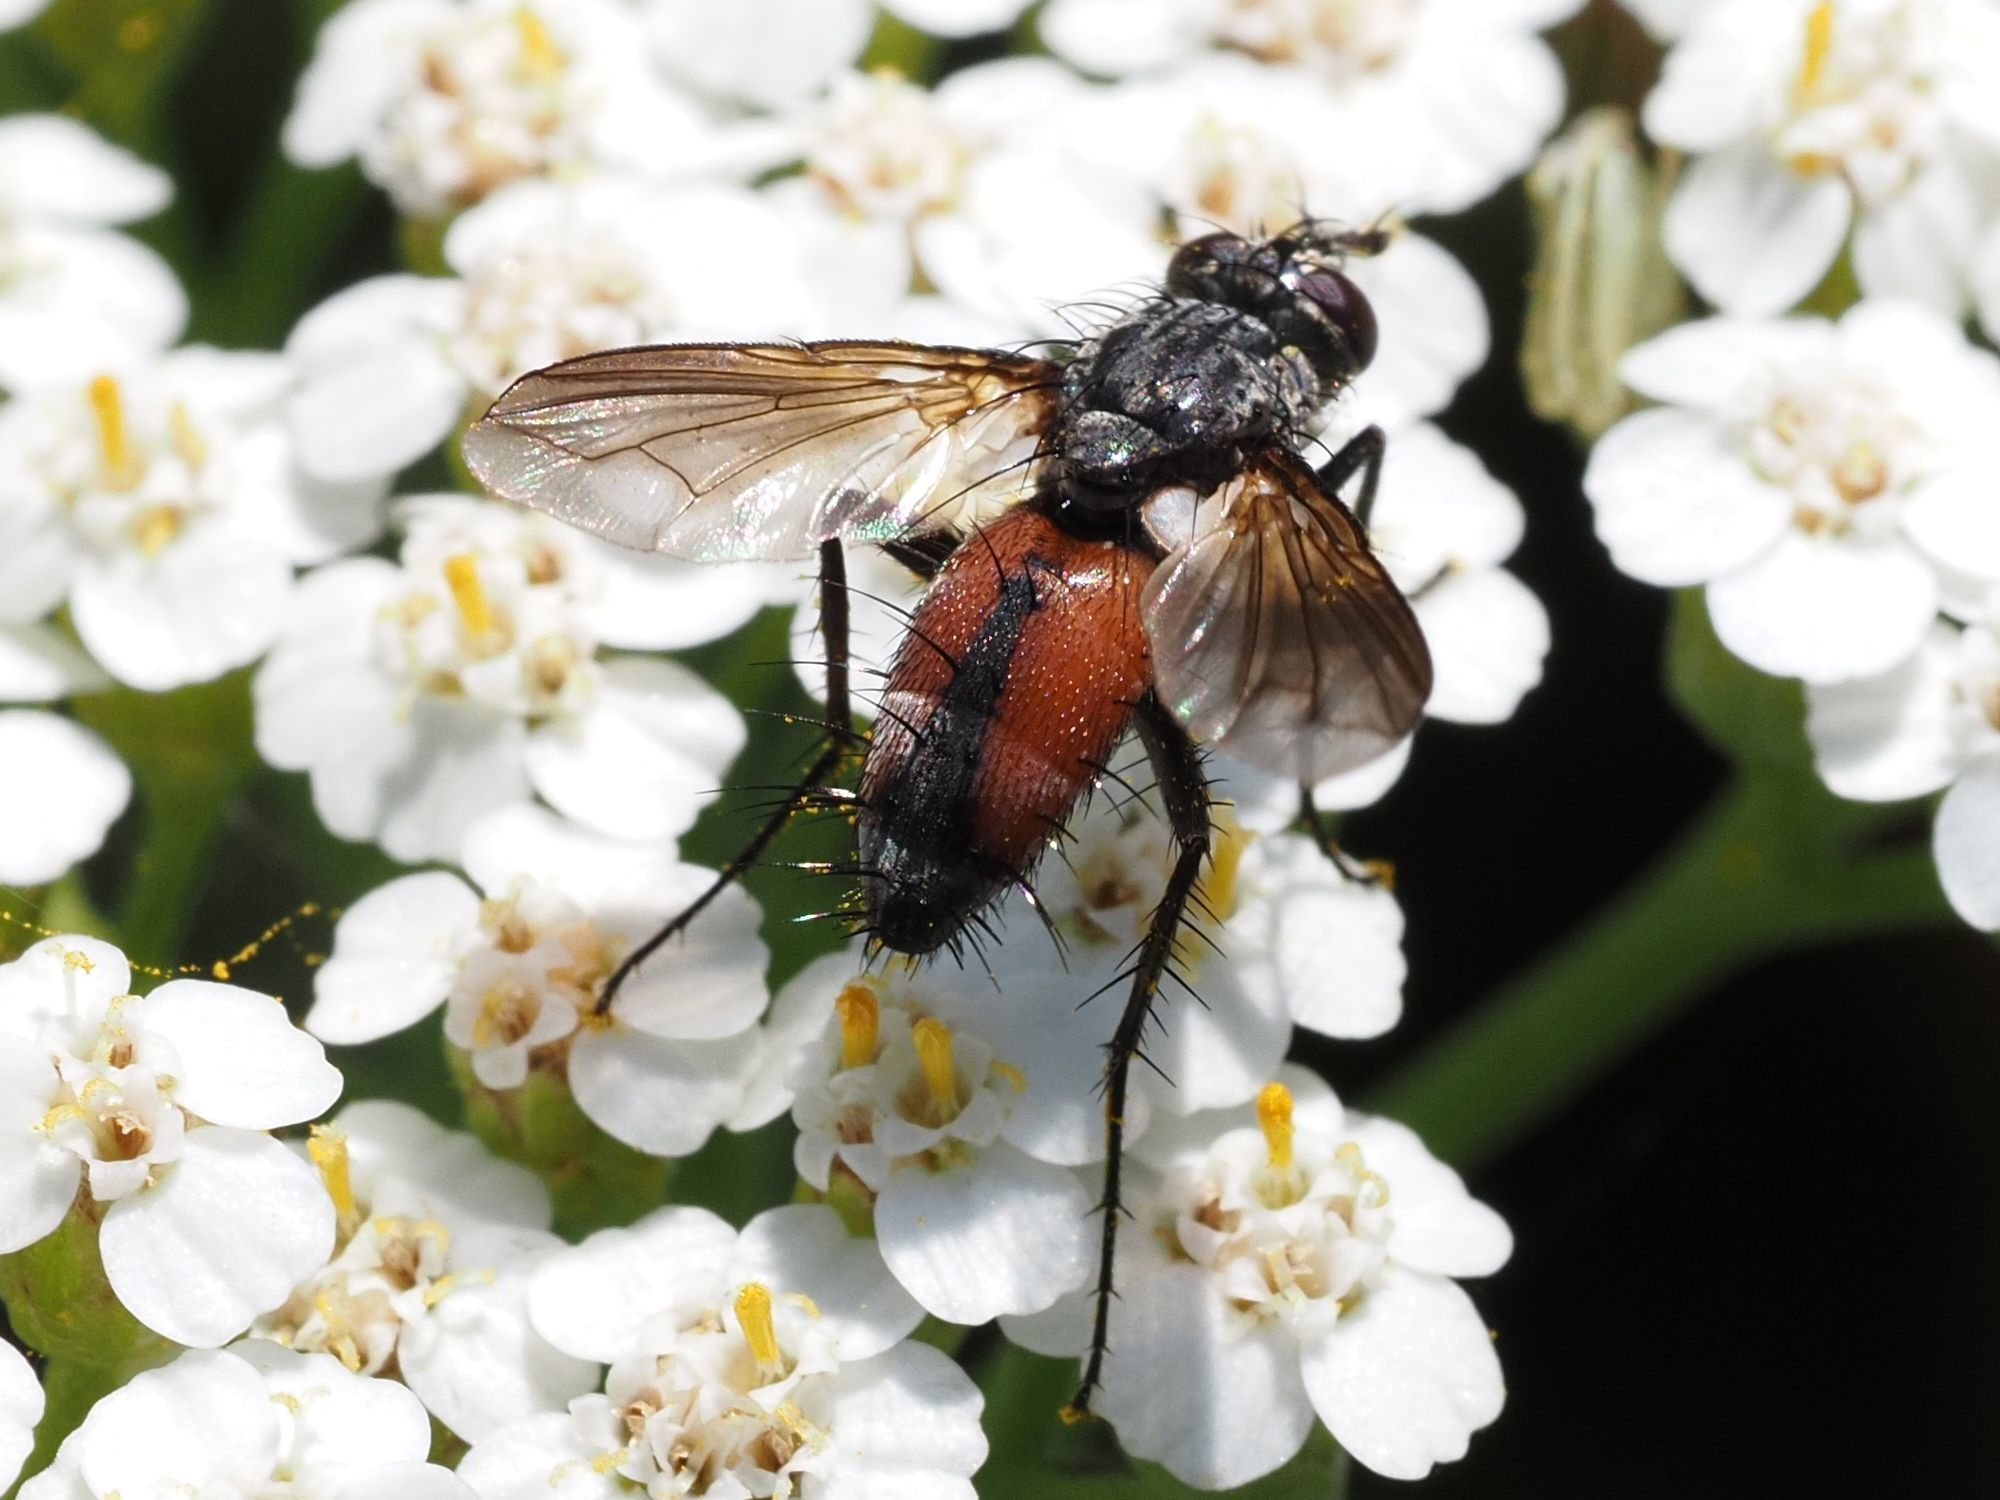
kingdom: Animalia
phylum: Arthropoda
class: Insecta
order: Diptera
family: Tachinidae
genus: Eriothrix
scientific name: Eriothrix rufomaculatus
